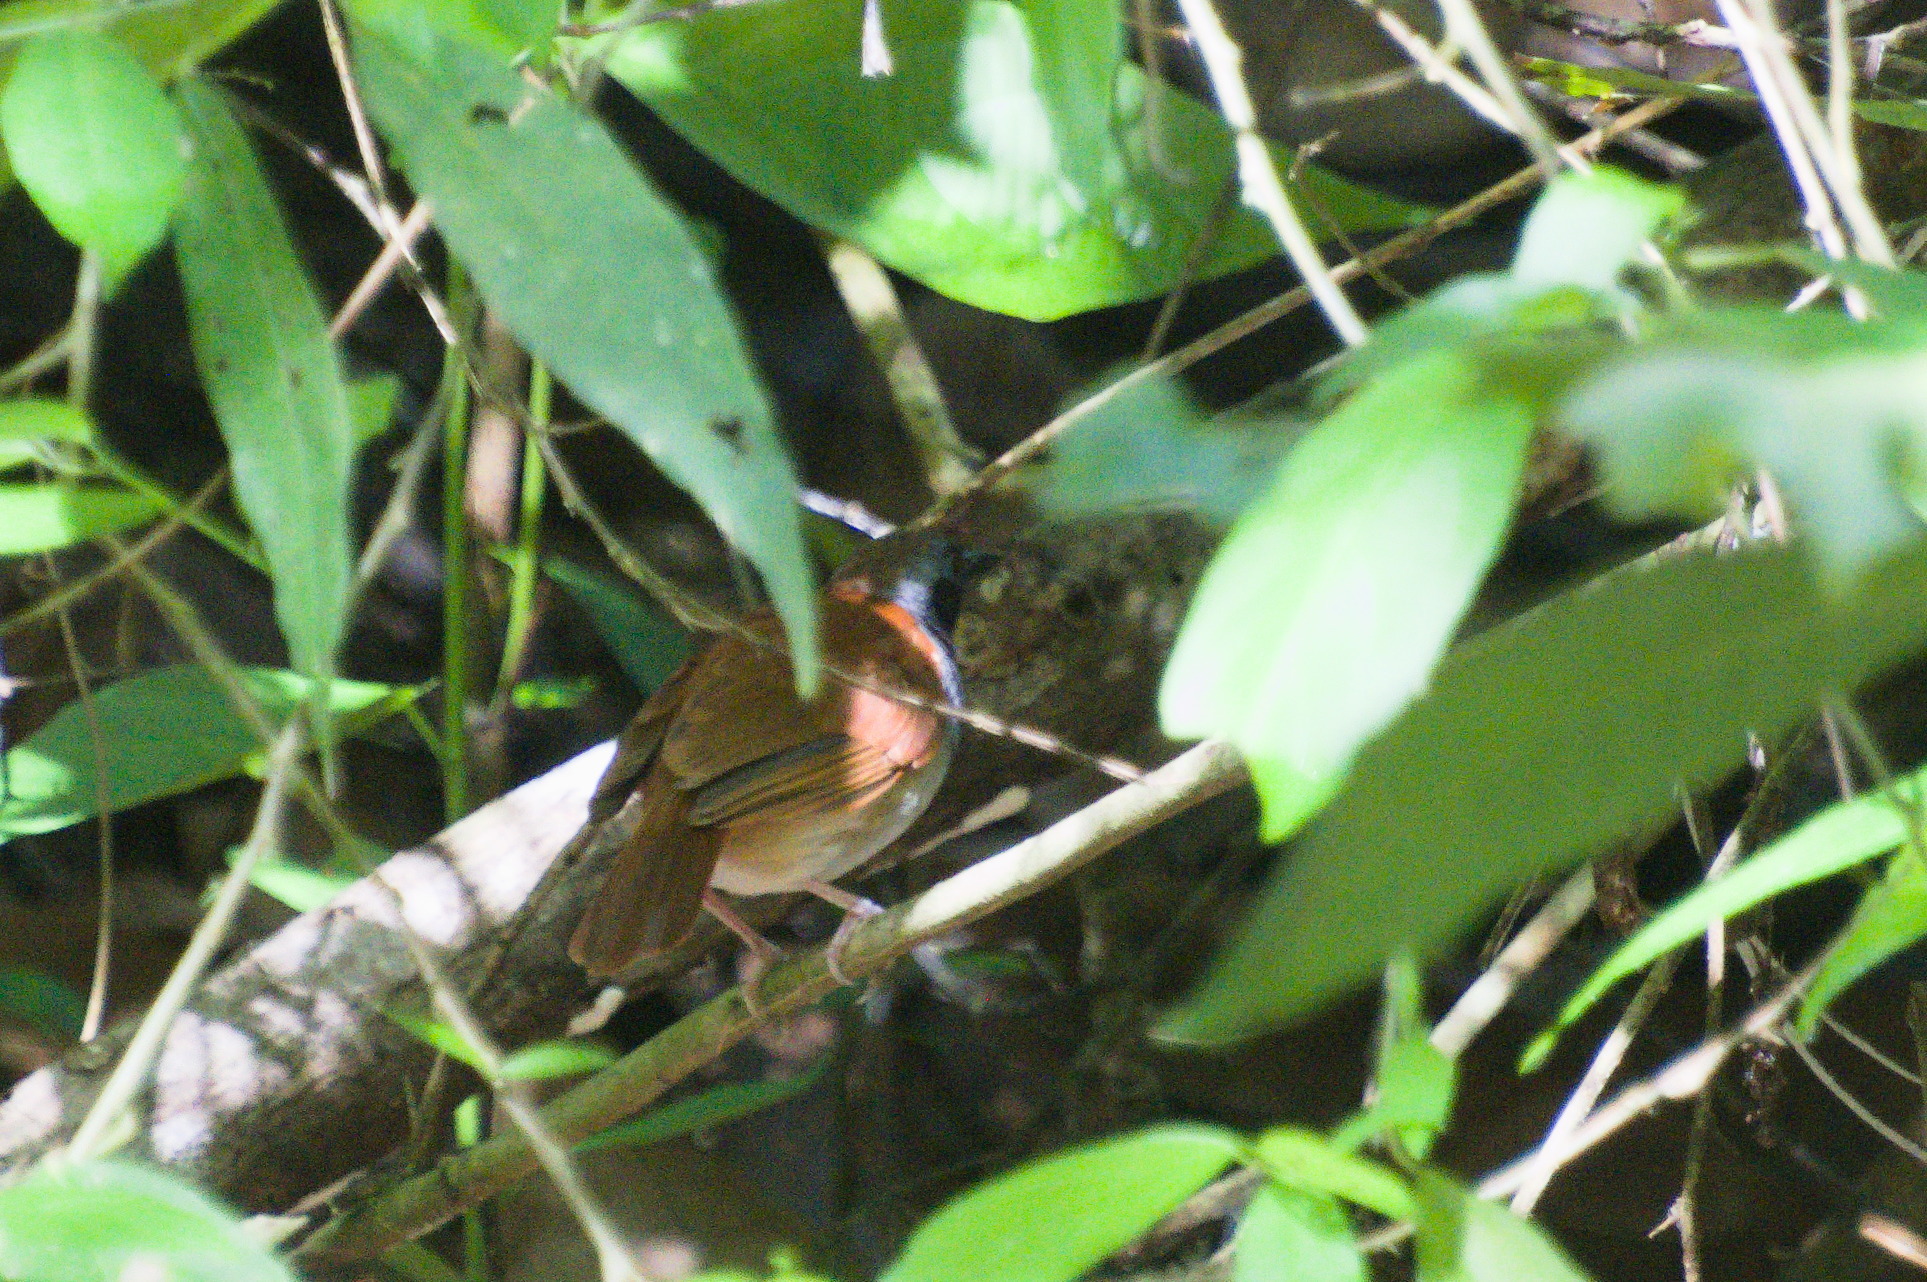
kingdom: Animalia
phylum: Chordata
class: Aves
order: Passeriformes
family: Thamnophilidae
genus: Myrmeciza
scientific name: Myrmeciza longipes
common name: White-bellied antbird
